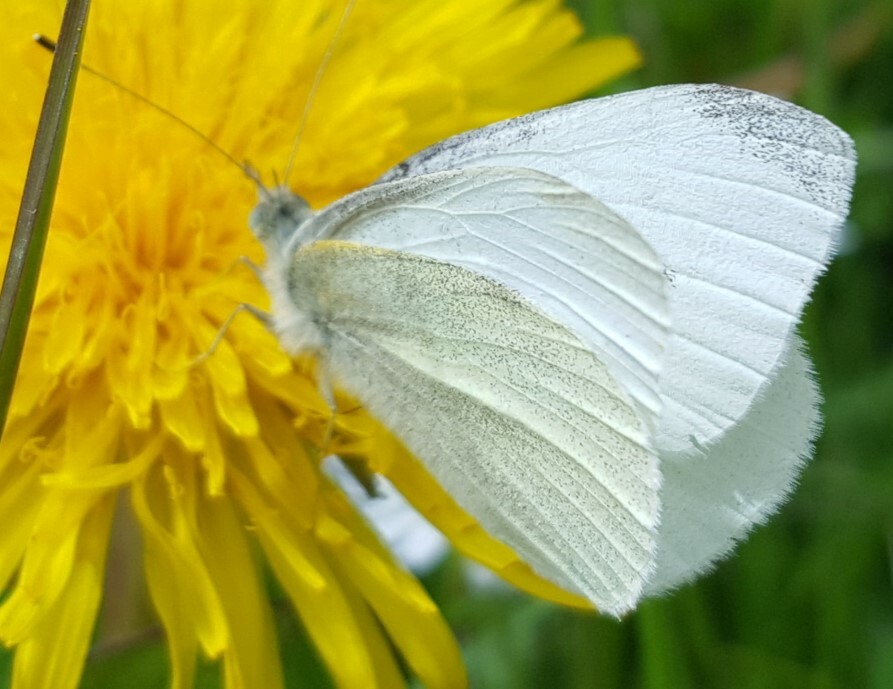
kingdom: Animalia
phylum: Arthropoda
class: Insecta
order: Lepidoptera
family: Pieridae
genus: Pieris
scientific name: Pieris rapae
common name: Small white
